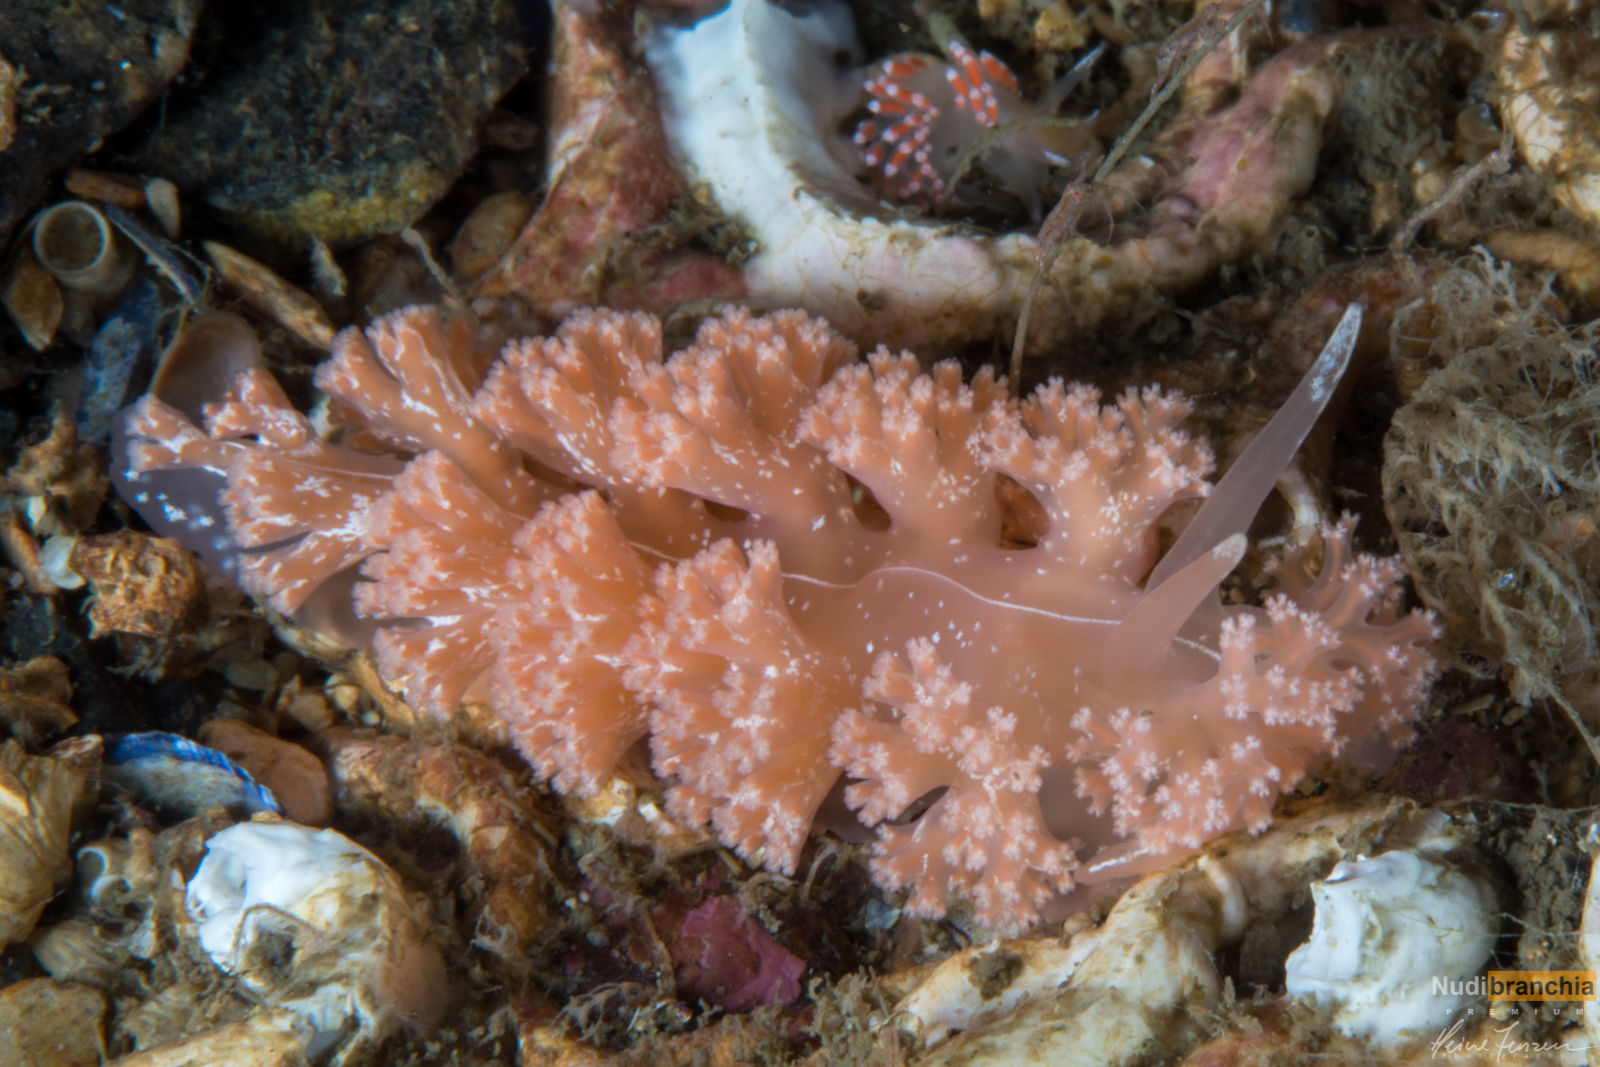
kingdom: Animalia
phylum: Mollusca
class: Gastropoda
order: Nudibranchia
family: Heroidae
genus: Hero
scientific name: Hero formosa
